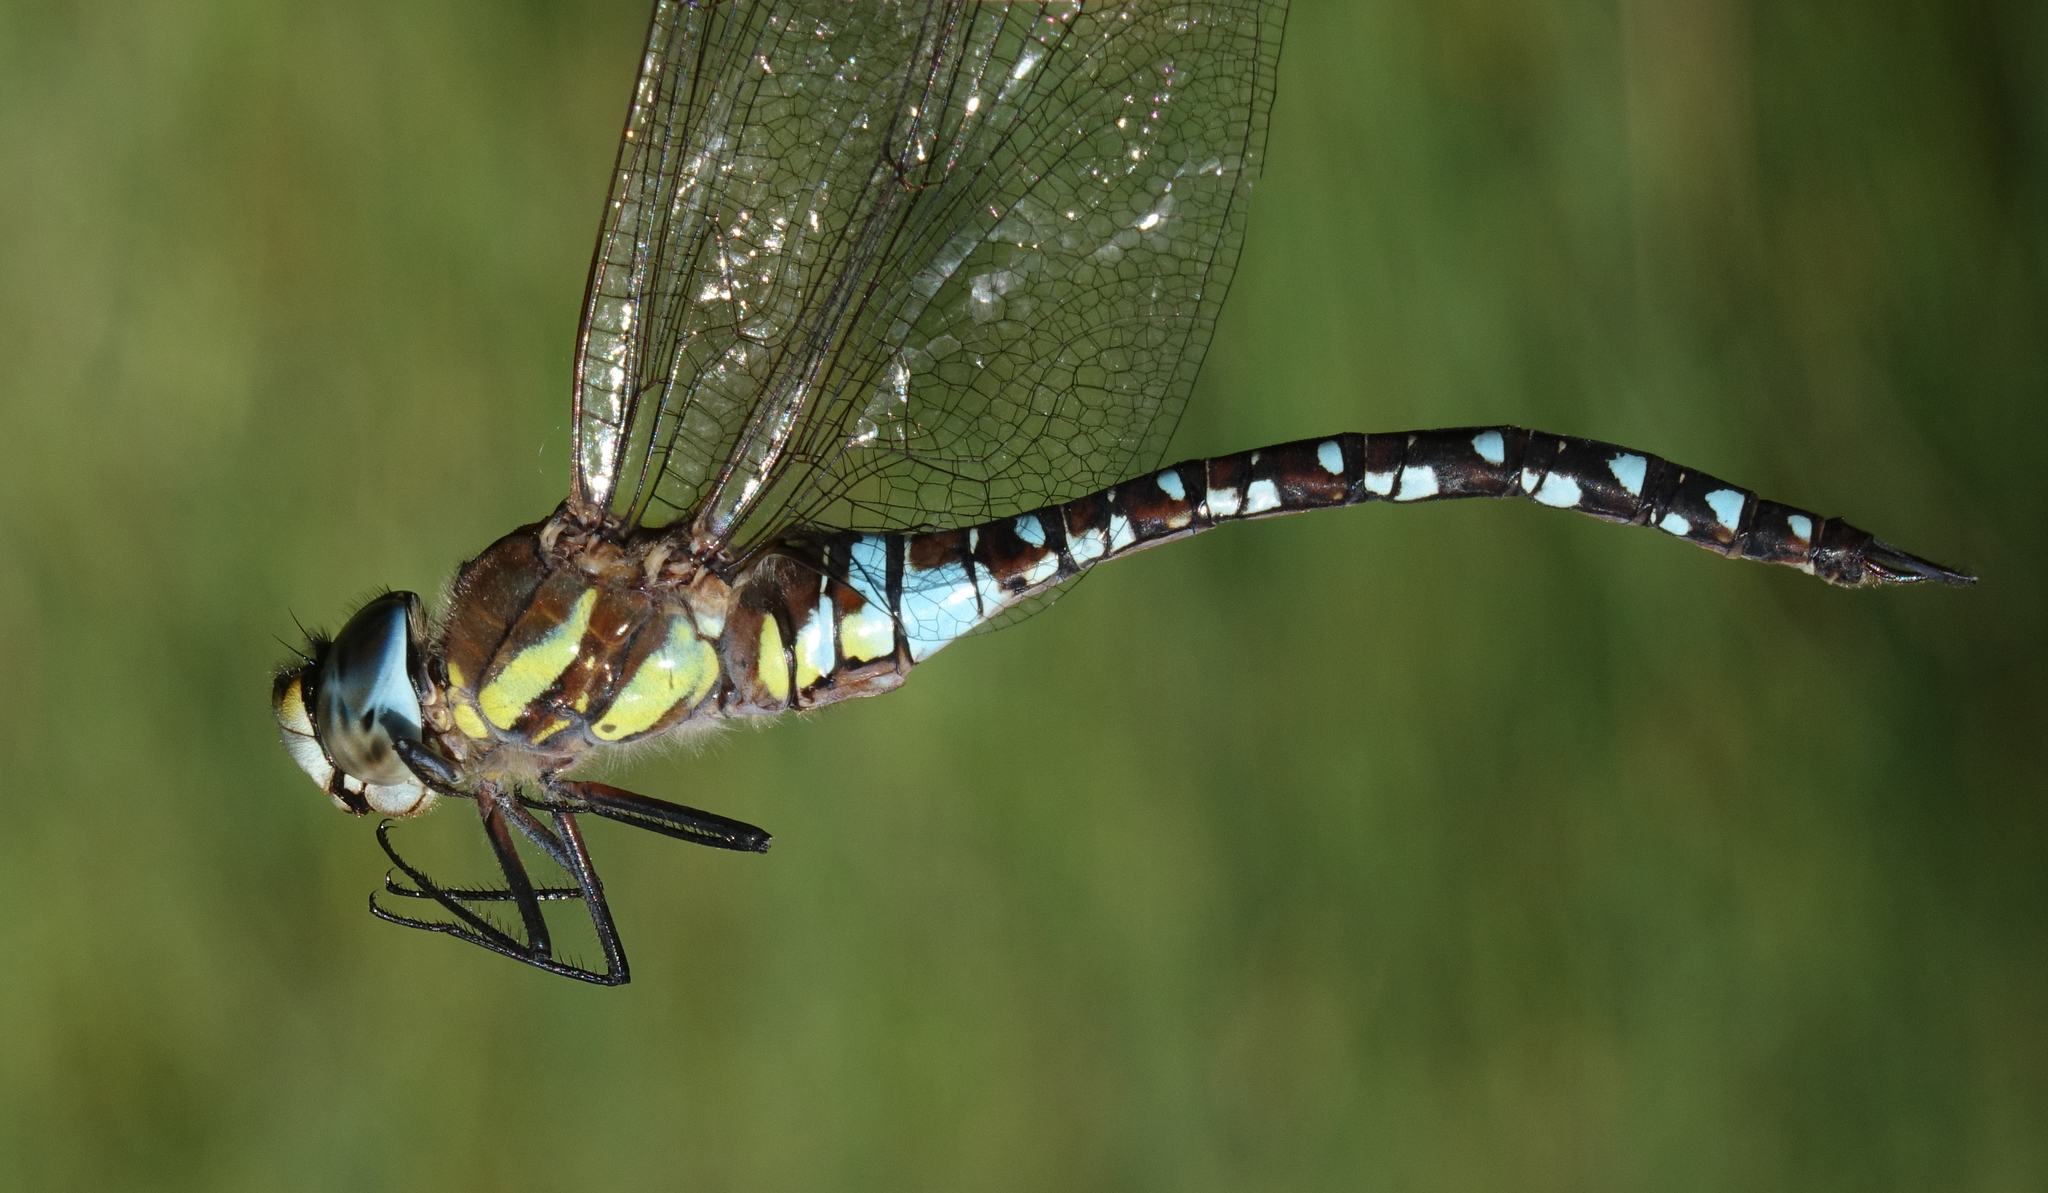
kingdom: Animalia
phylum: Arthropoda
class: Insecta
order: Odonata
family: Aeshnidae
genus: Aeshna
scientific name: Aeshna mixta
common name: Migrant hawker
